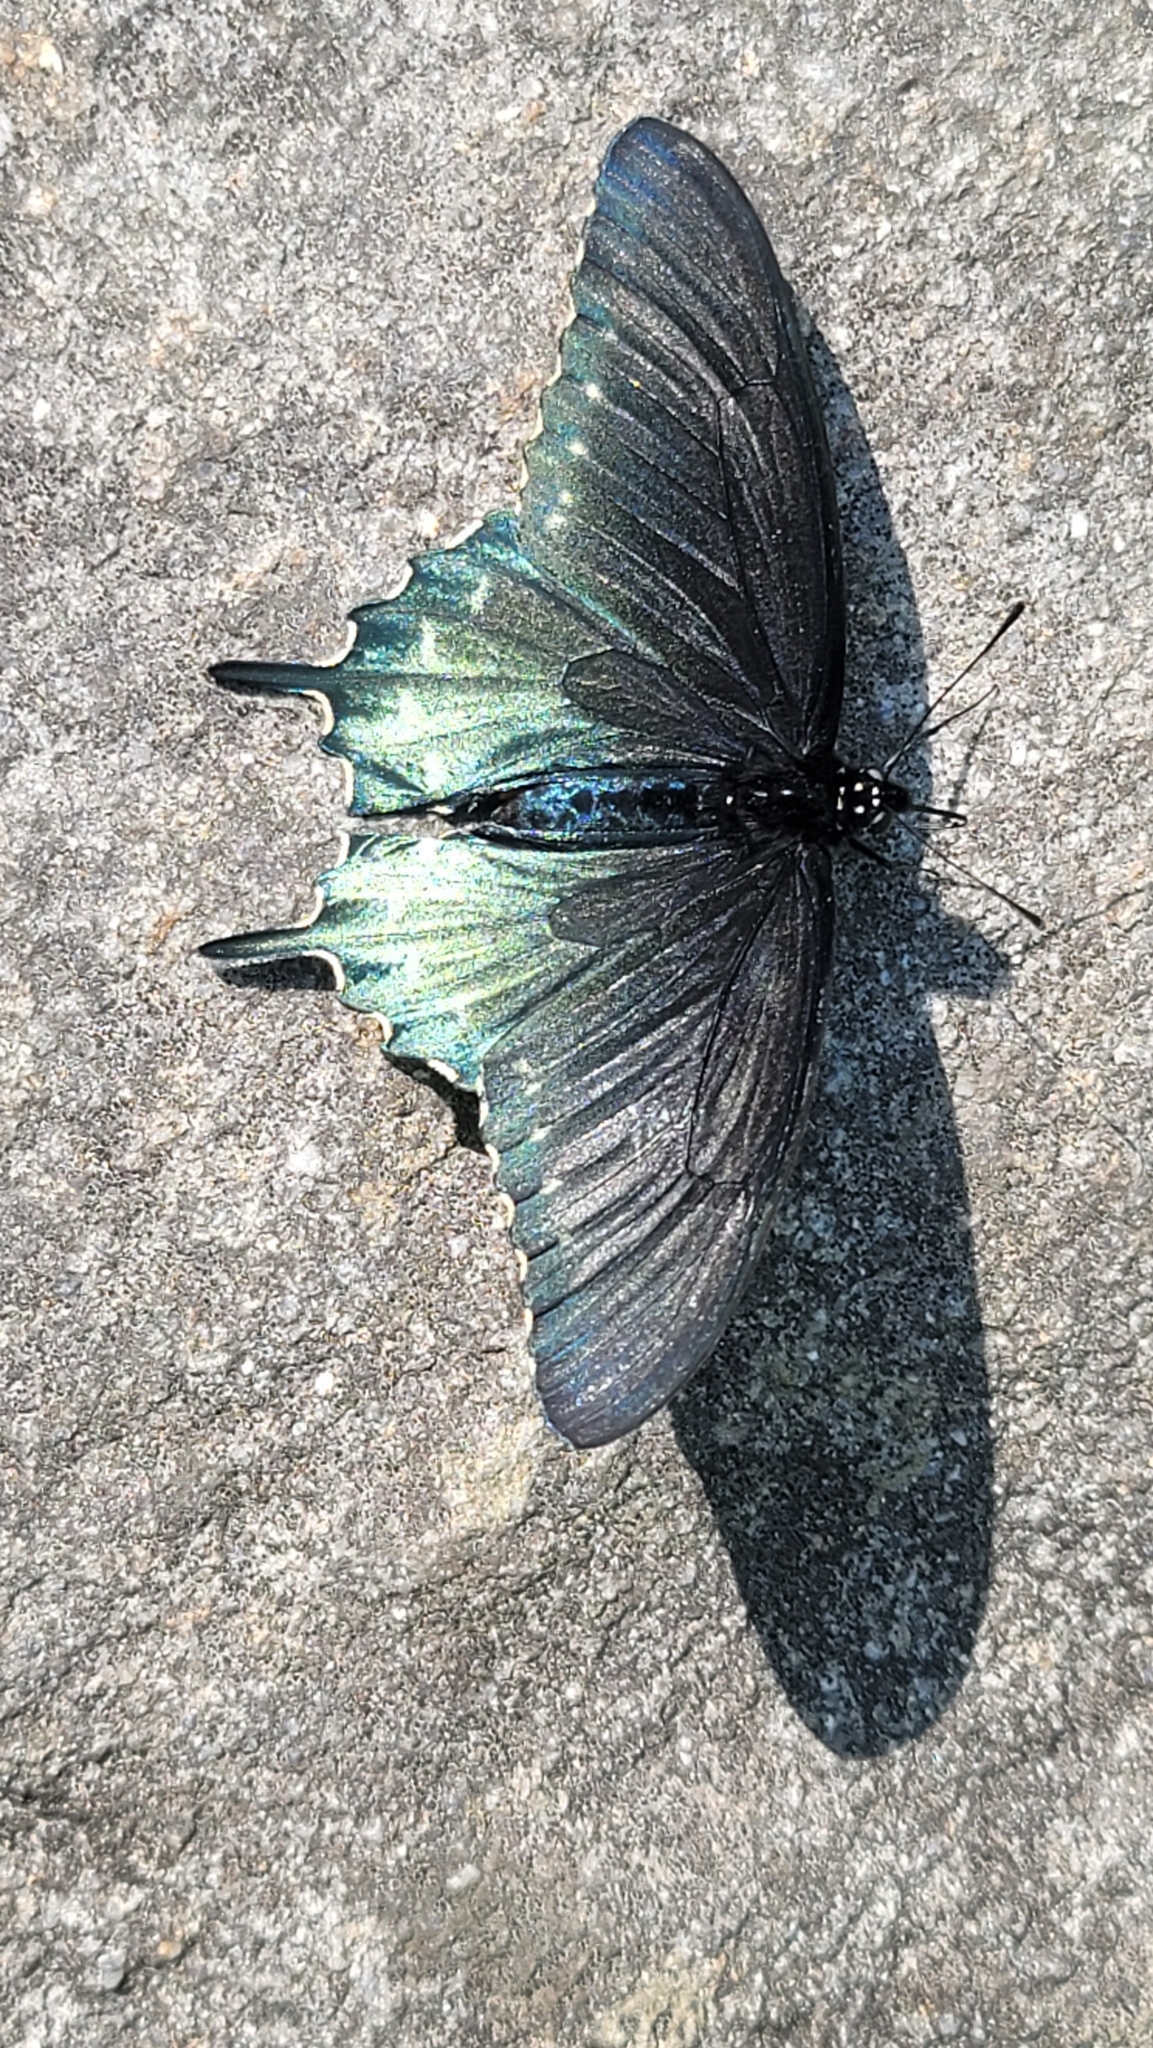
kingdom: Animalia
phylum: Arthropoda
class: Insecta
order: Lepidoptera
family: Papilionidae
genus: Battus
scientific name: Battus philenor
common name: Pipevine swallowtail
